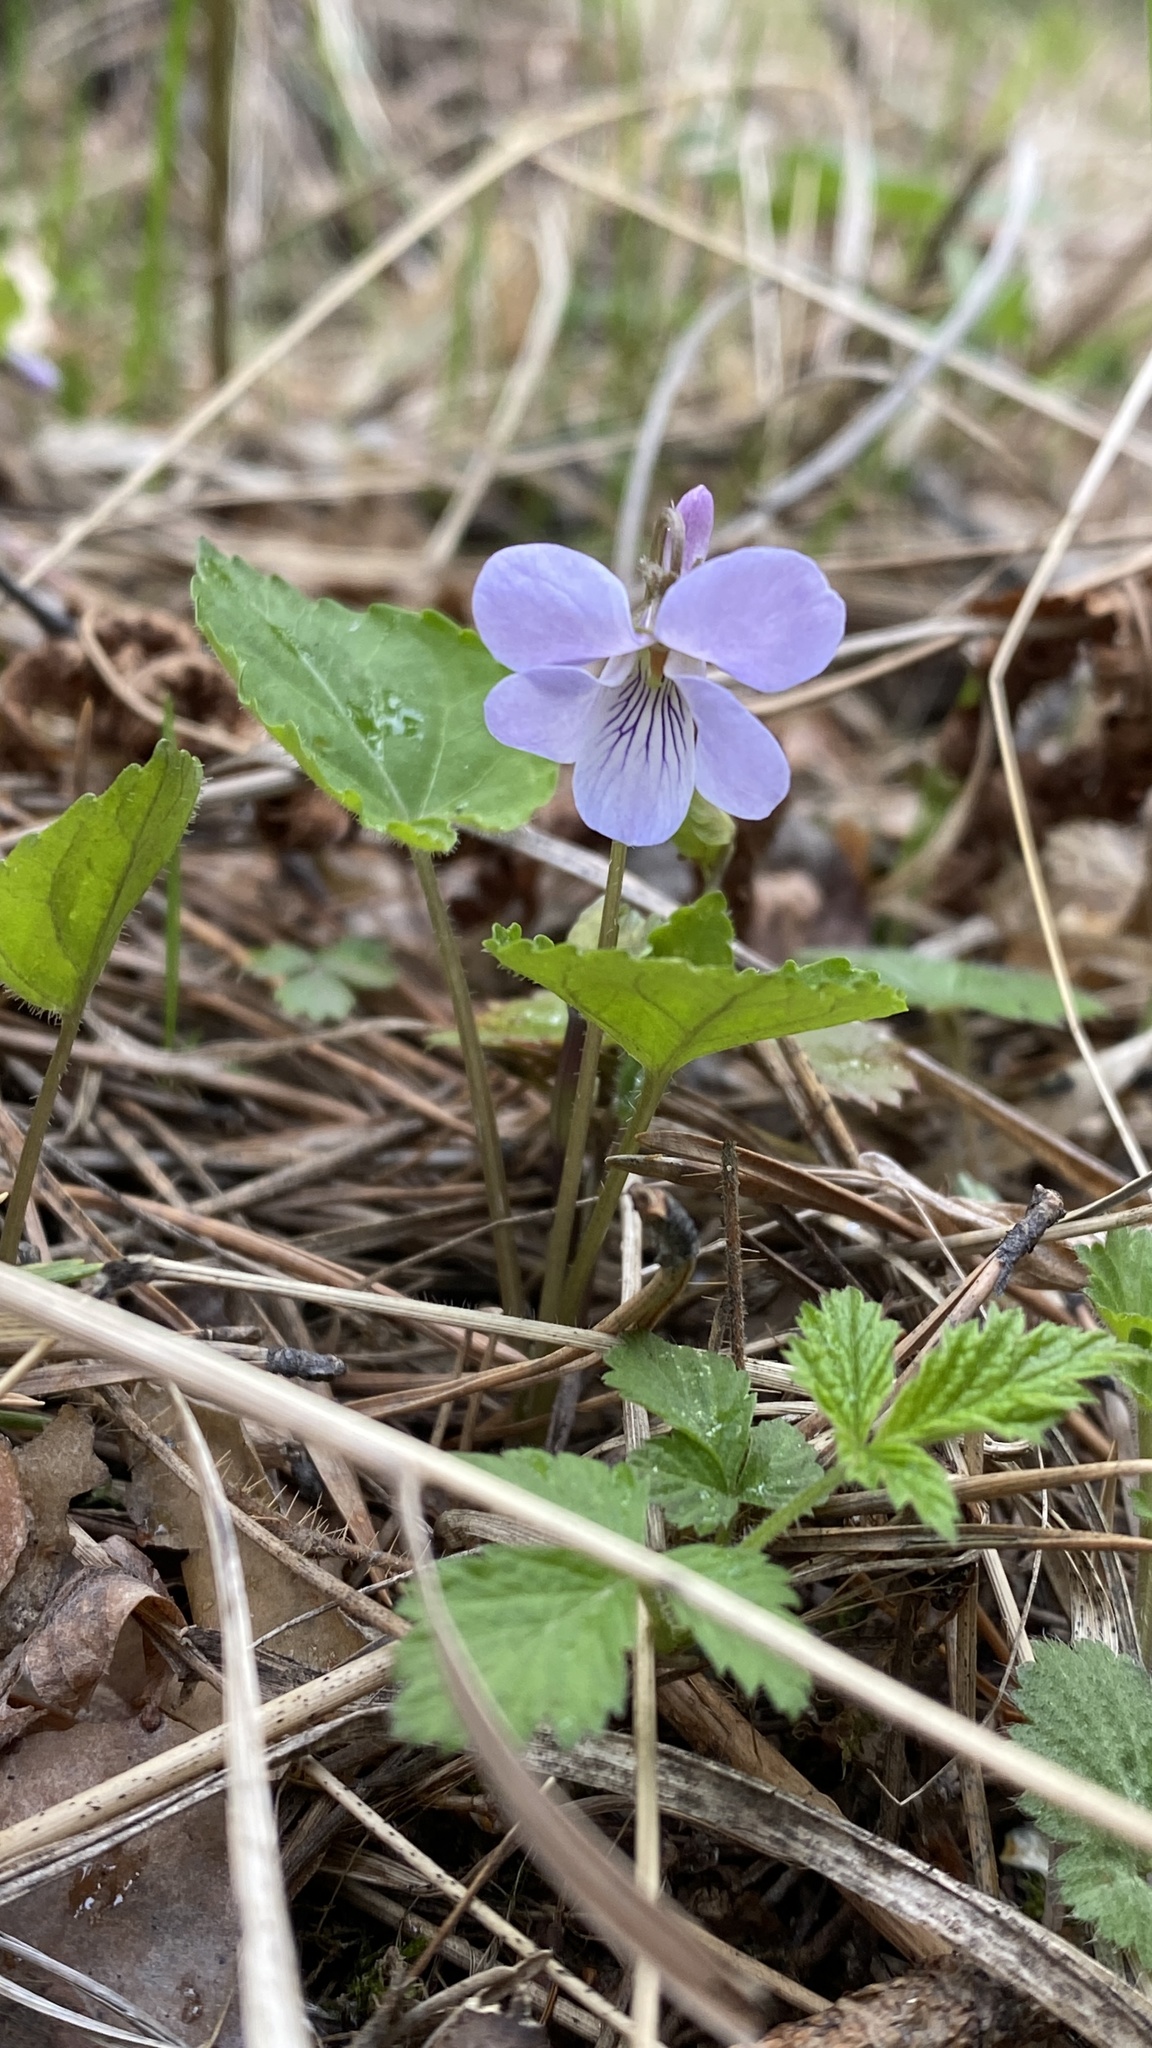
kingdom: Plantae
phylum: Tracheophyta
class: Magnoliopsida
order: Malpighiales
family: Violaceae
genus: Viola
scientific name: Viola selkirkii
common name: Selkirk's violet
